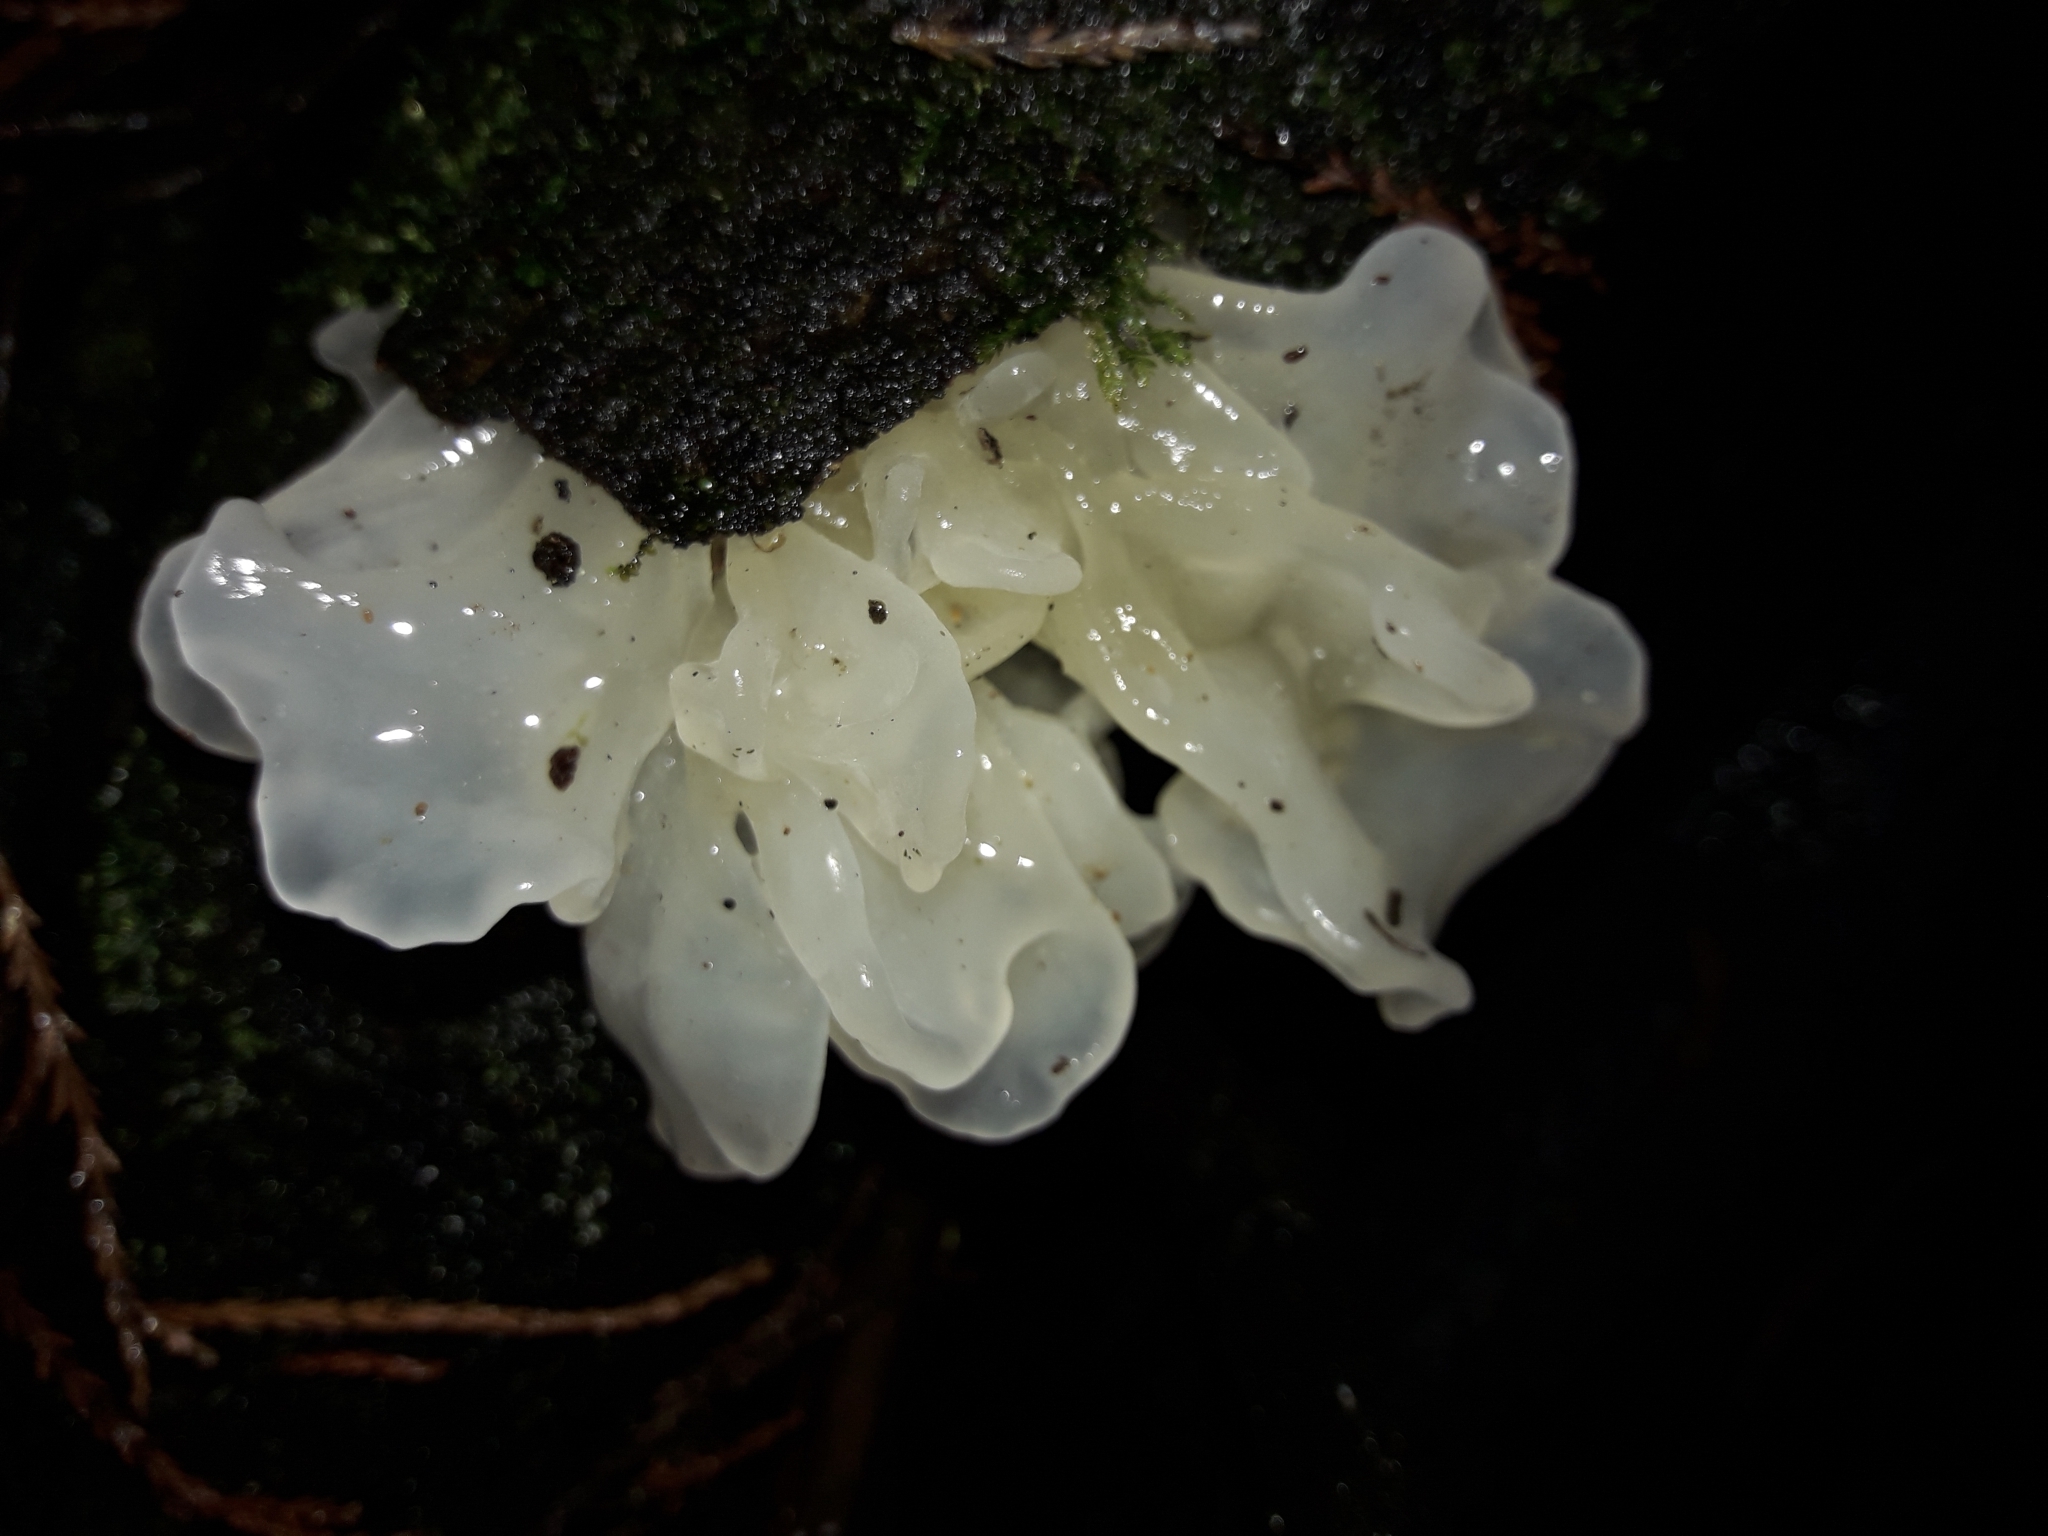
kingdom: Fungi
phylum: Basidiomycota
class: Tremellomycetes
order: Tremellales
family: Tremellaceae
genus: Tremella
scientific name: Tremella fuciformis
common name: Snow fungus
